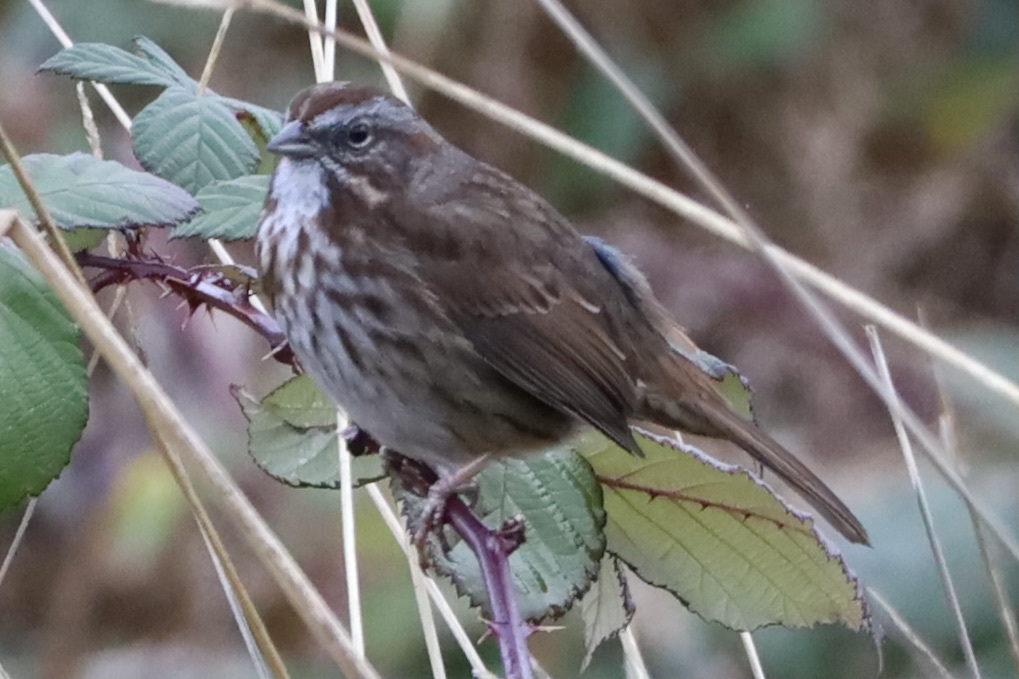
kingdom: Animalia
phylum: Chordata
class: Aves
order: Passeriformes
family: Passerellidae
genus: Melospiza
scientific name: Melospiza melodia
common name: Song sparrow
